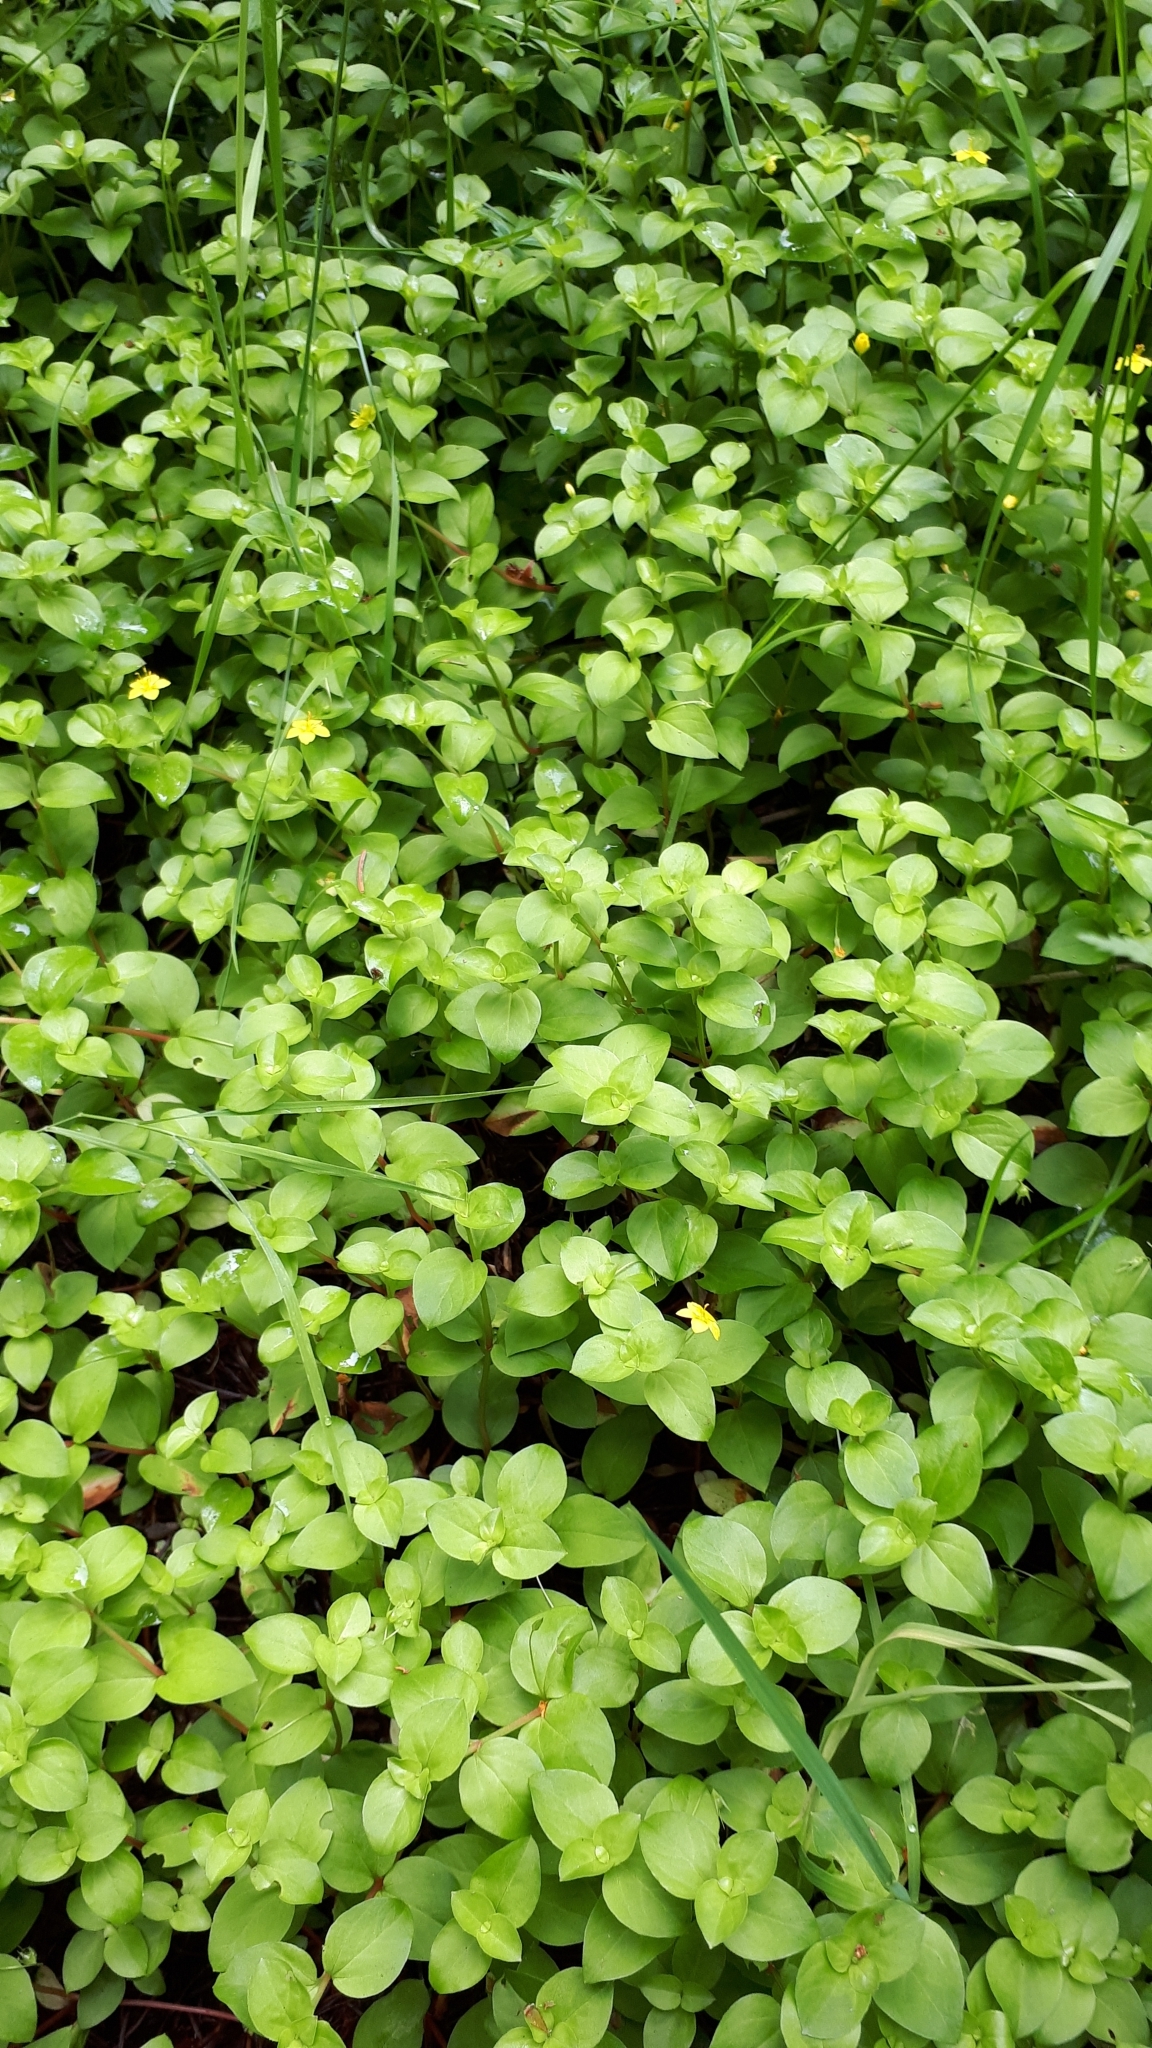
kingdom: Plantae
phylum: Tracheophyta
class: Magnoliopsida
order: Ericales
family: Primulaceae
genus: Lysimachia
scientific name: Lysimachia nemorum
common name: Yellow pimpernel
